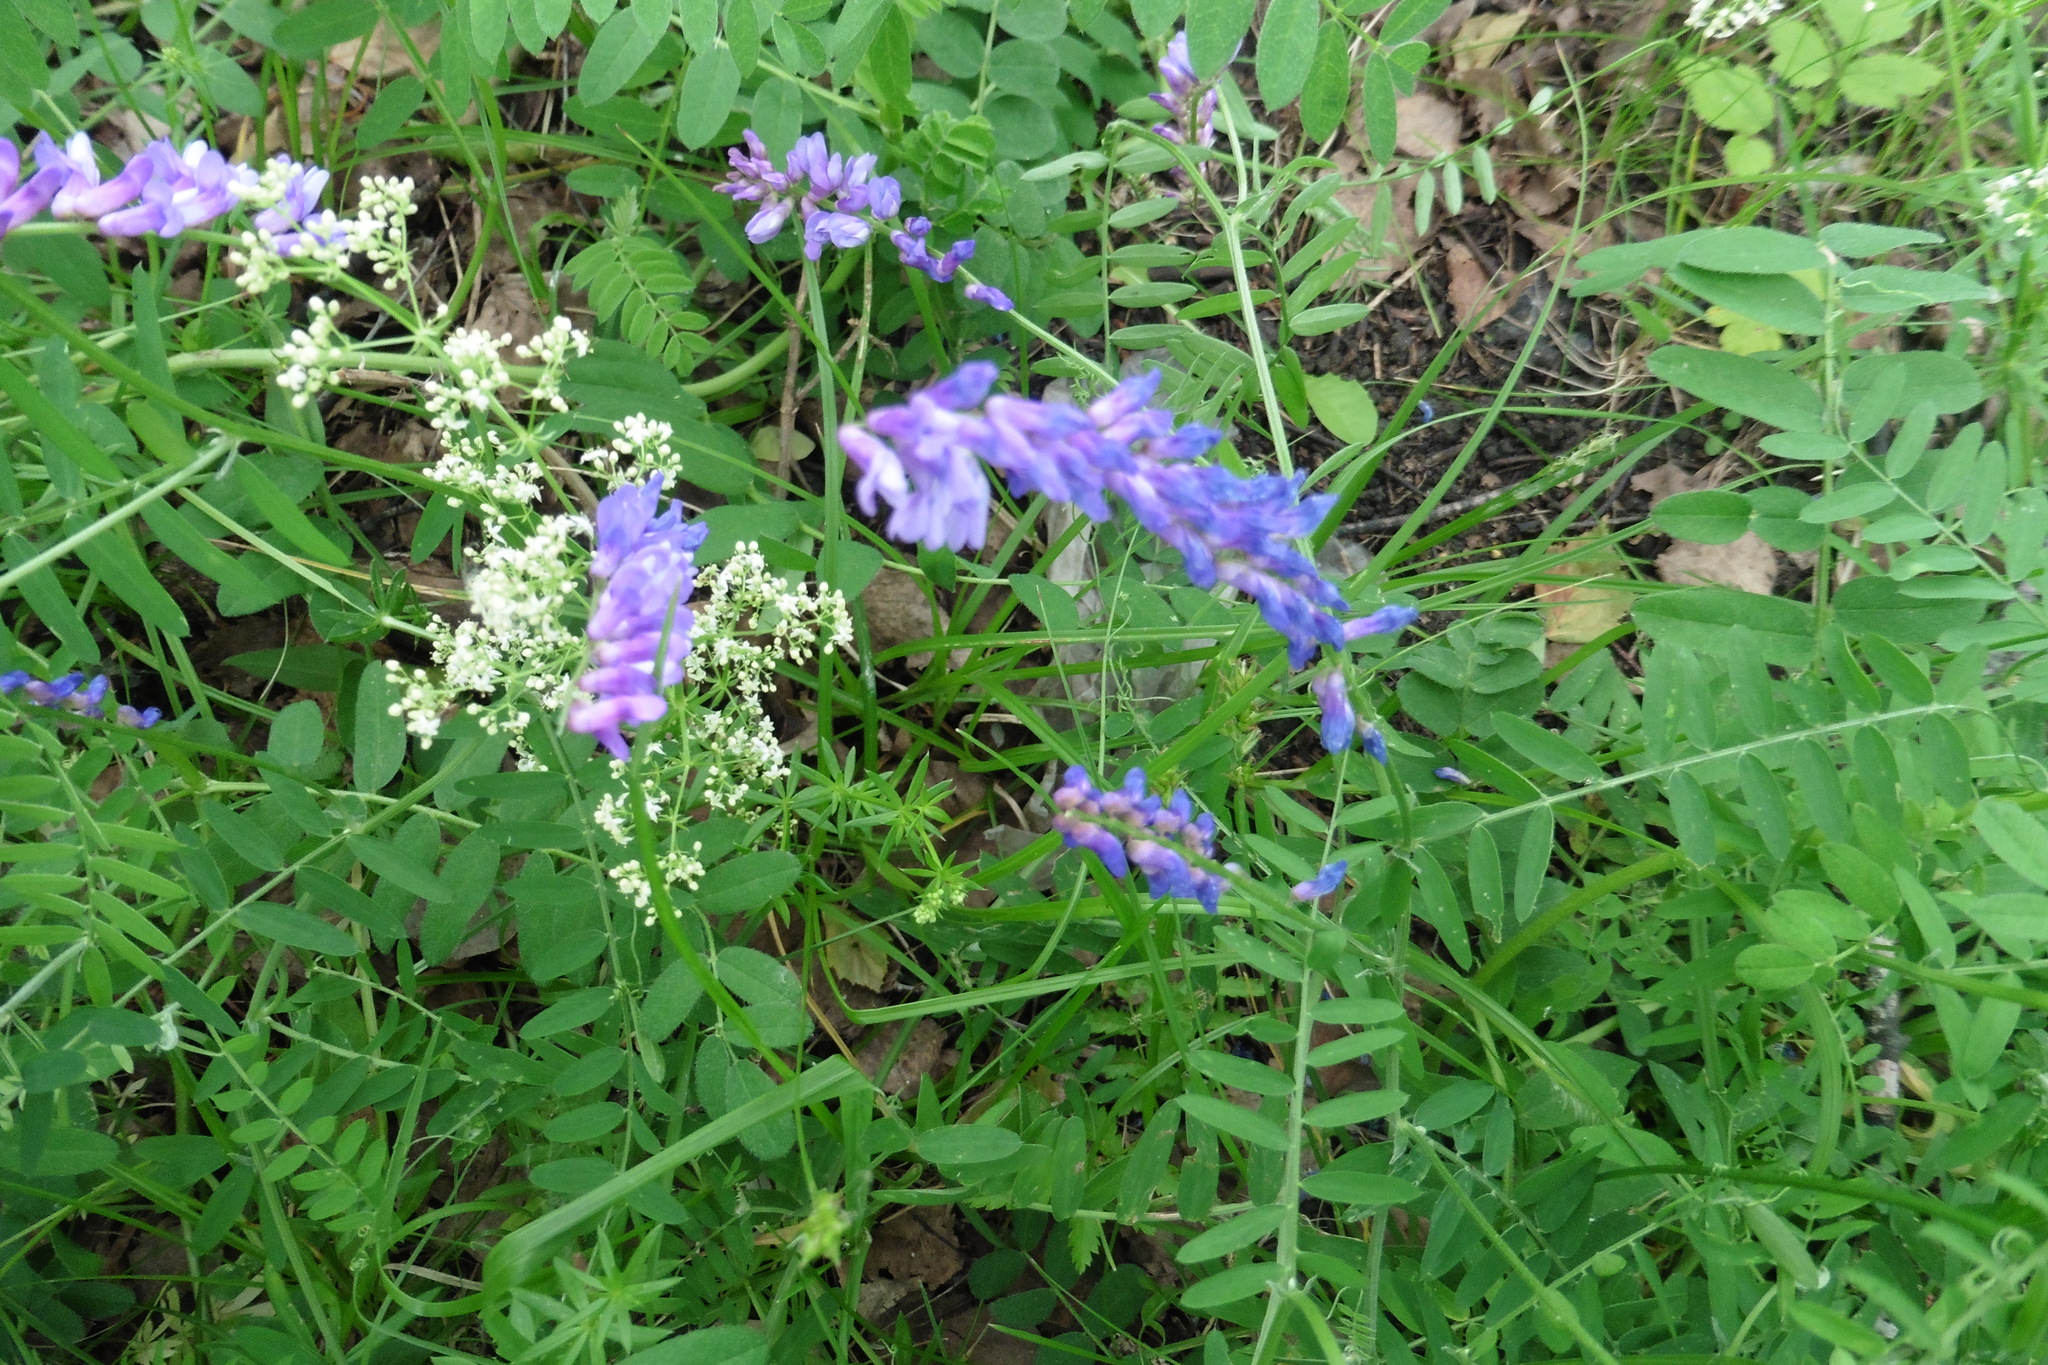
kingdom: Plantae
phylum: Tracheophyta
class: Magnoliopsida
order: Fabales
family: Fabaceae
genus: Vicia
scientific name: Vicia cracca
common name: Bird vetch
